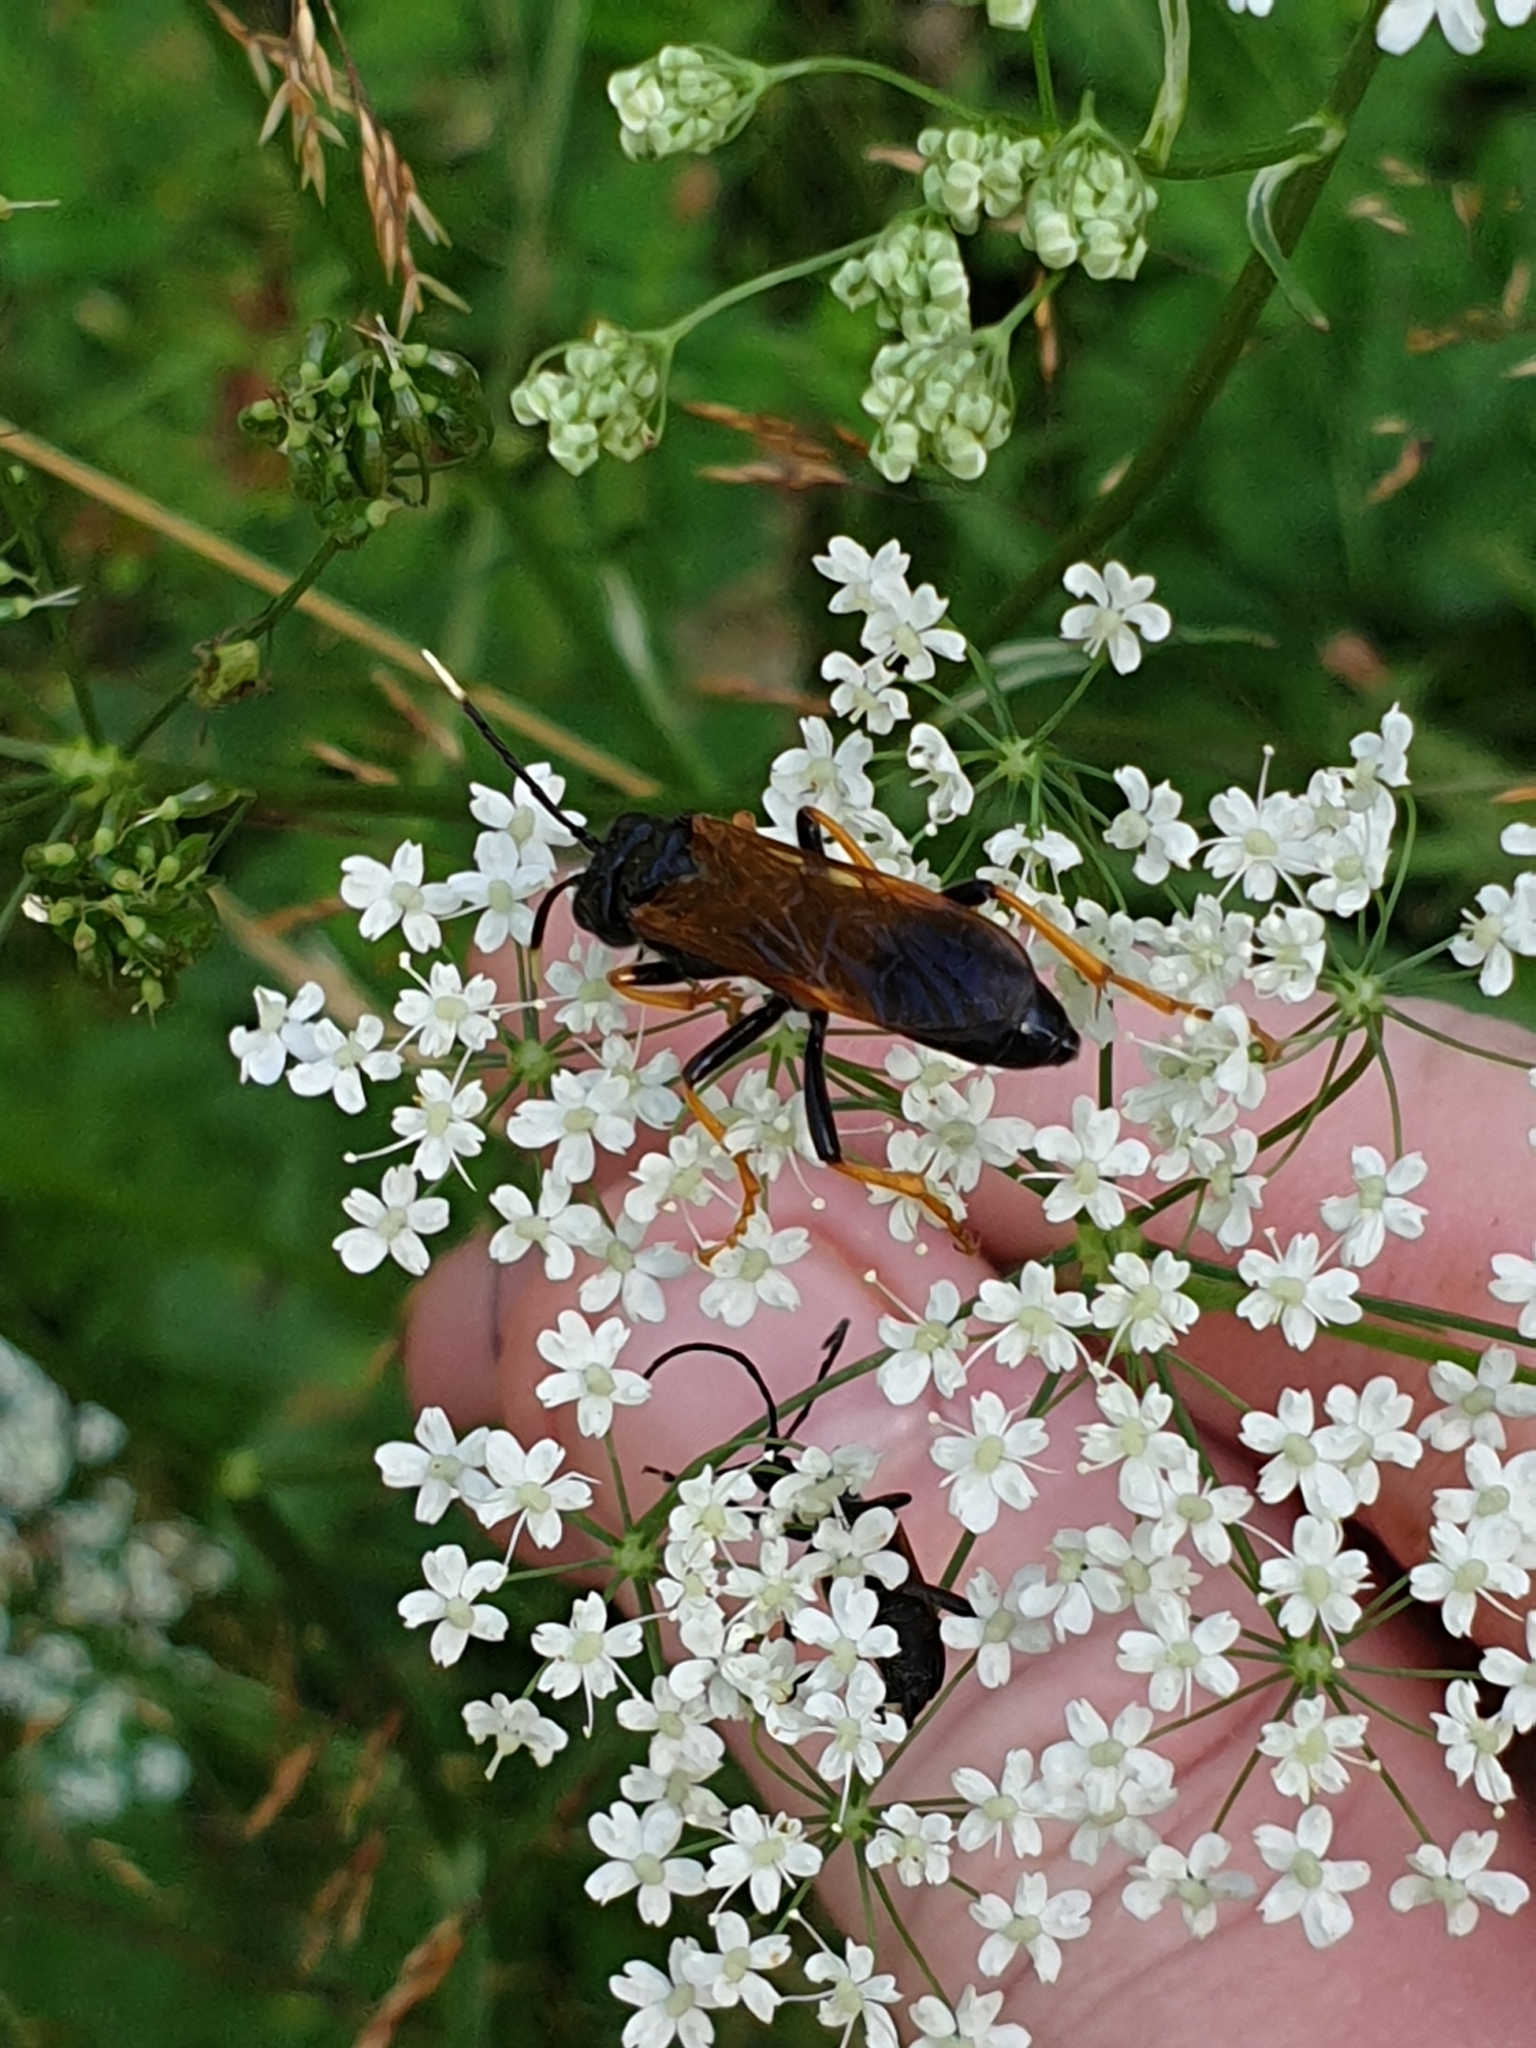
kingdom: Animalia
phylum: Arthropoda
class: Insecta
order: Hymenoptera
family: Tenthredinidae
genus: Tenthredo
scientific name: Tenthredo crassa
